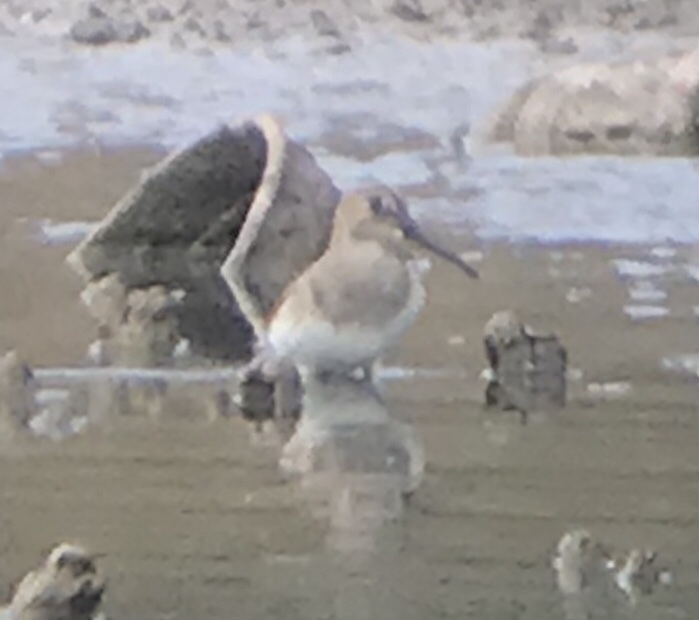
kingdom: Animalia
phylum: Chordata
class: Aves
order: Charadriiformes
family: Scolopacidae
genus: Calidris
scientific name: Calidris alpina
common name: Dunlin
